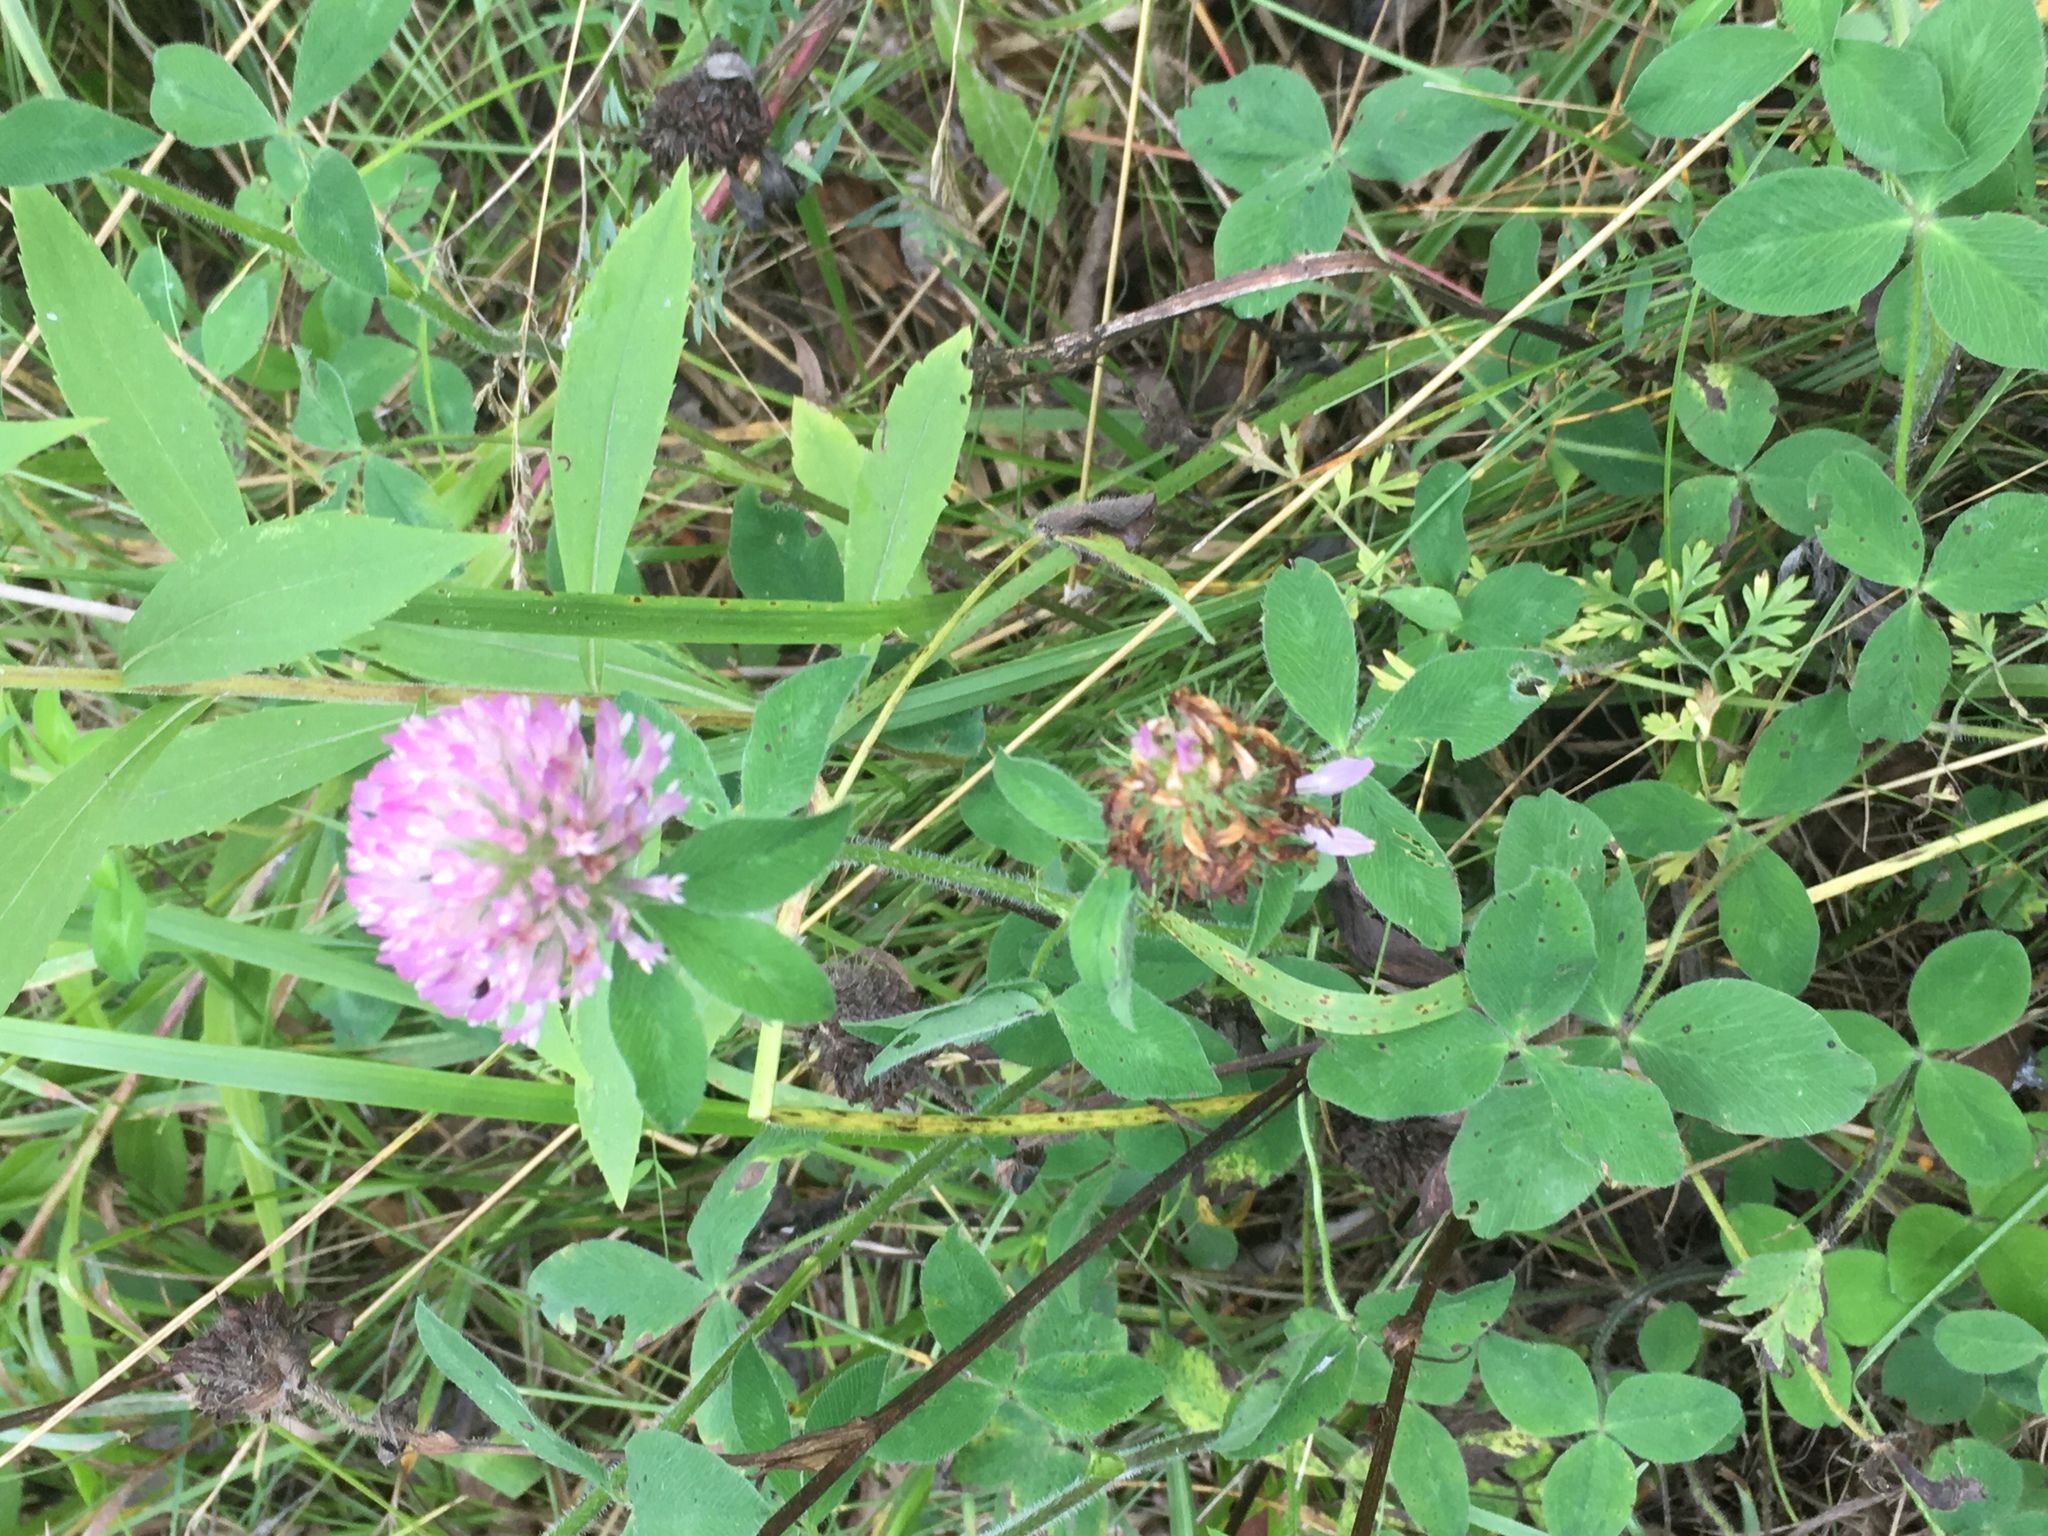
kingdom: Plantae
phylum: Tracheophyta
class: Magnoliopsida
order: Fabales
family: Fabaceae
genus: Trifolium
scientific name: Trifolium pratense
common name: Red clover
